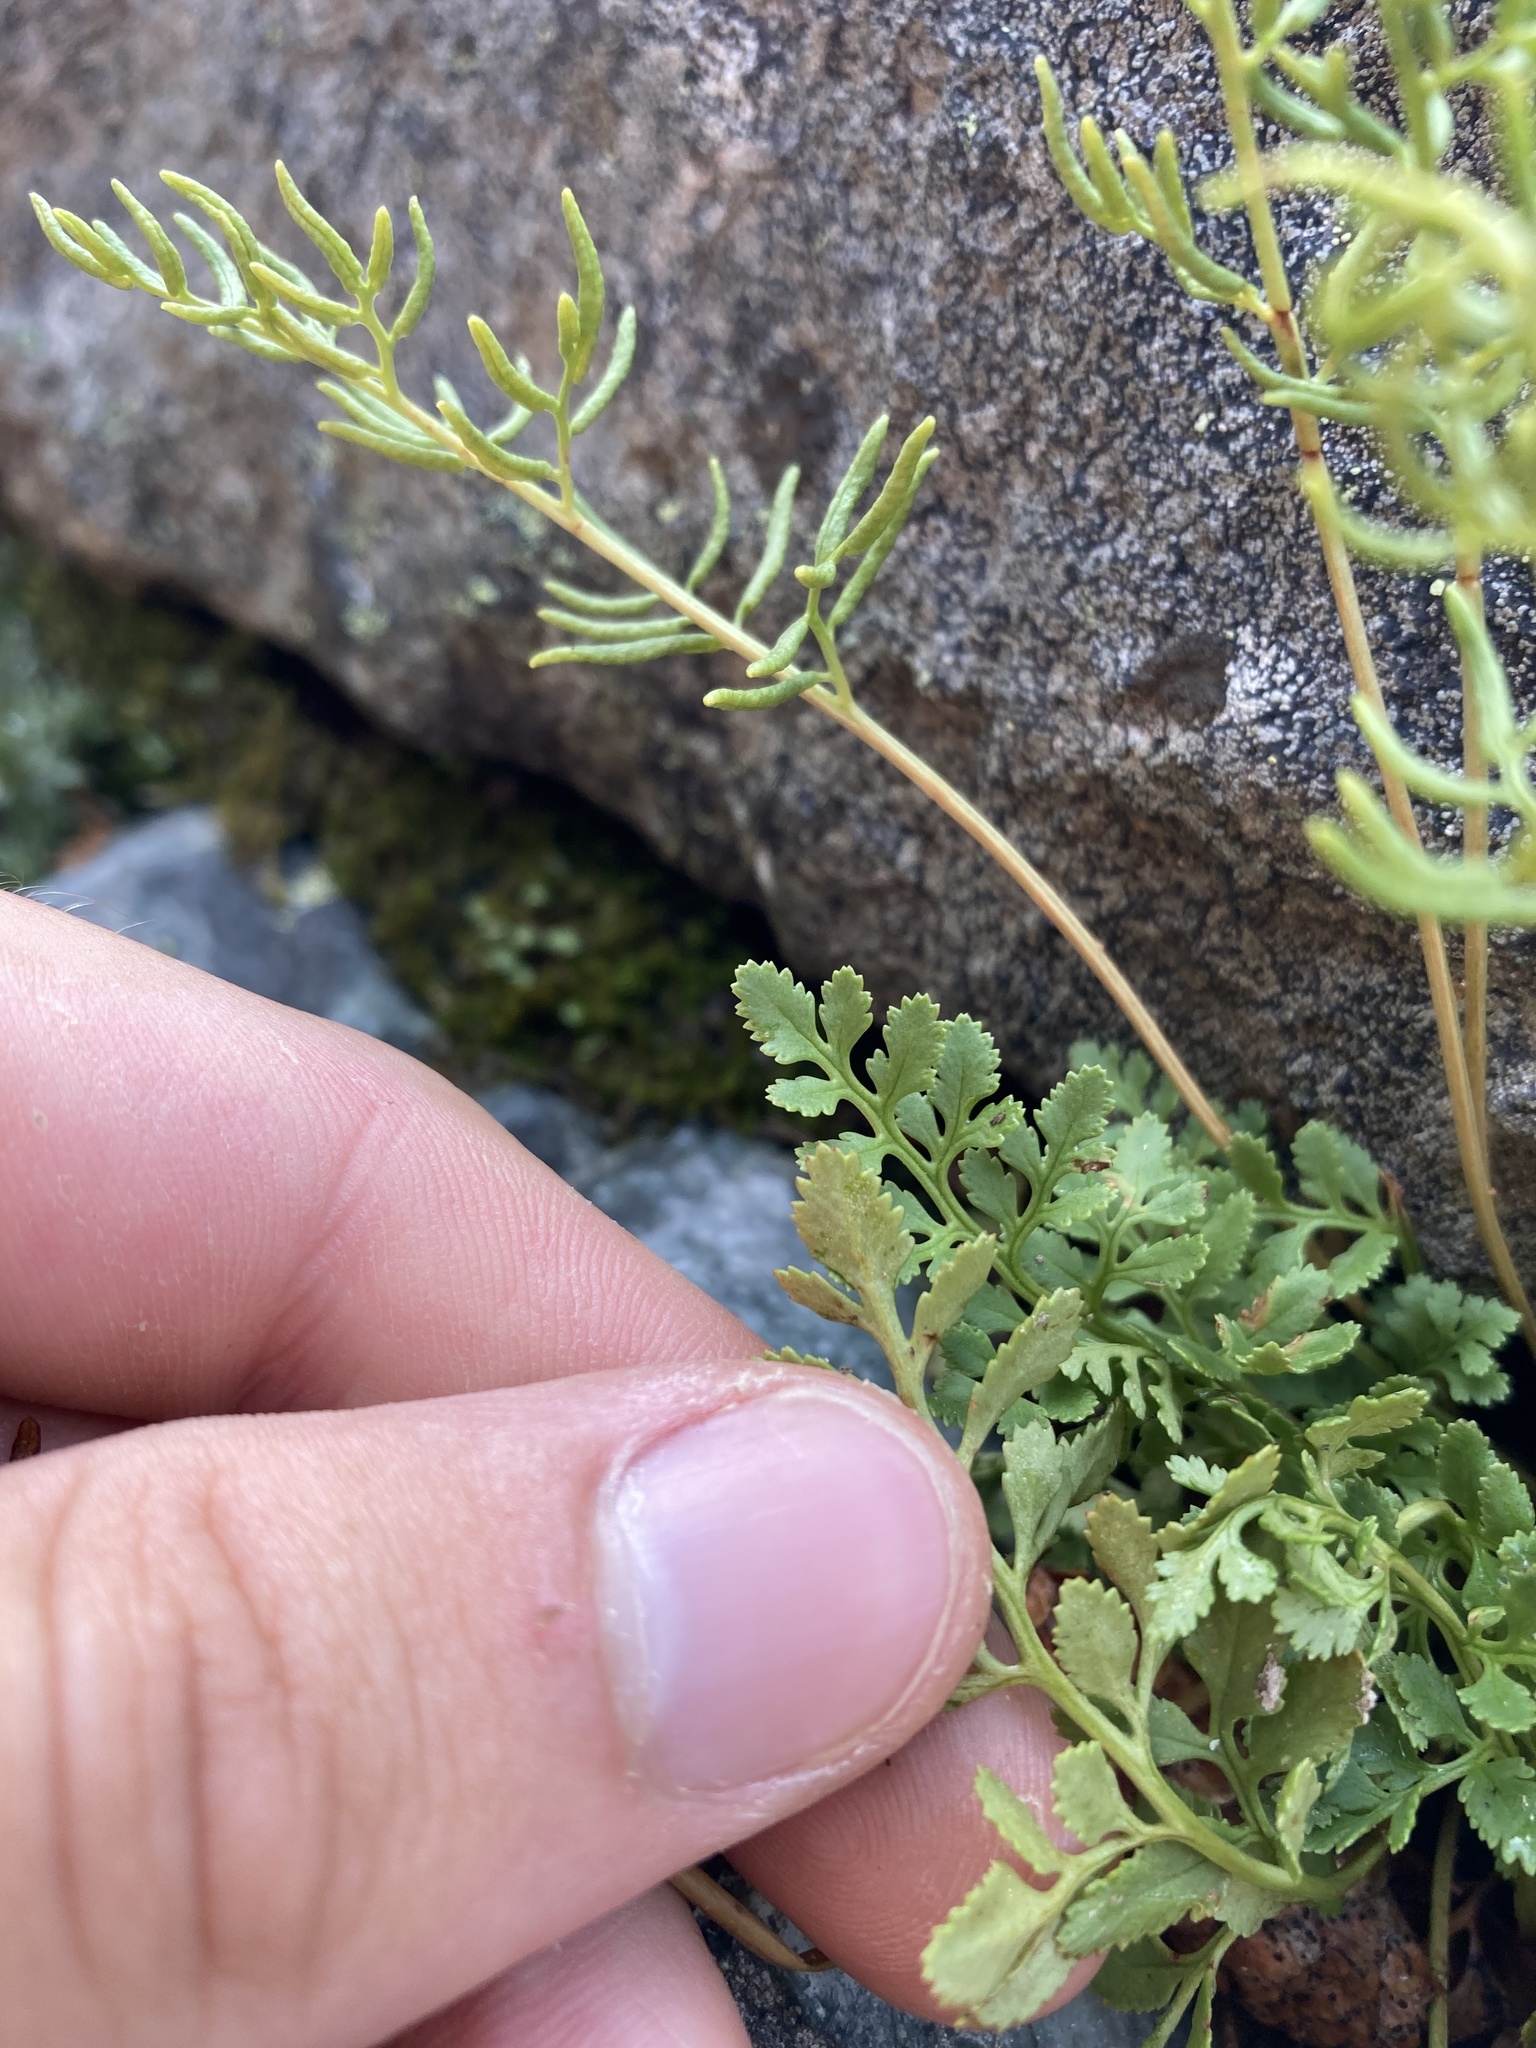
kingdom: Plantae
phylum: Tracheophyta
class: Polypodiopsida
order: Polypodiales
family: Pteridaceae
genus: Cryptogramma
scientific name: Cryptogramma acrostichoides
